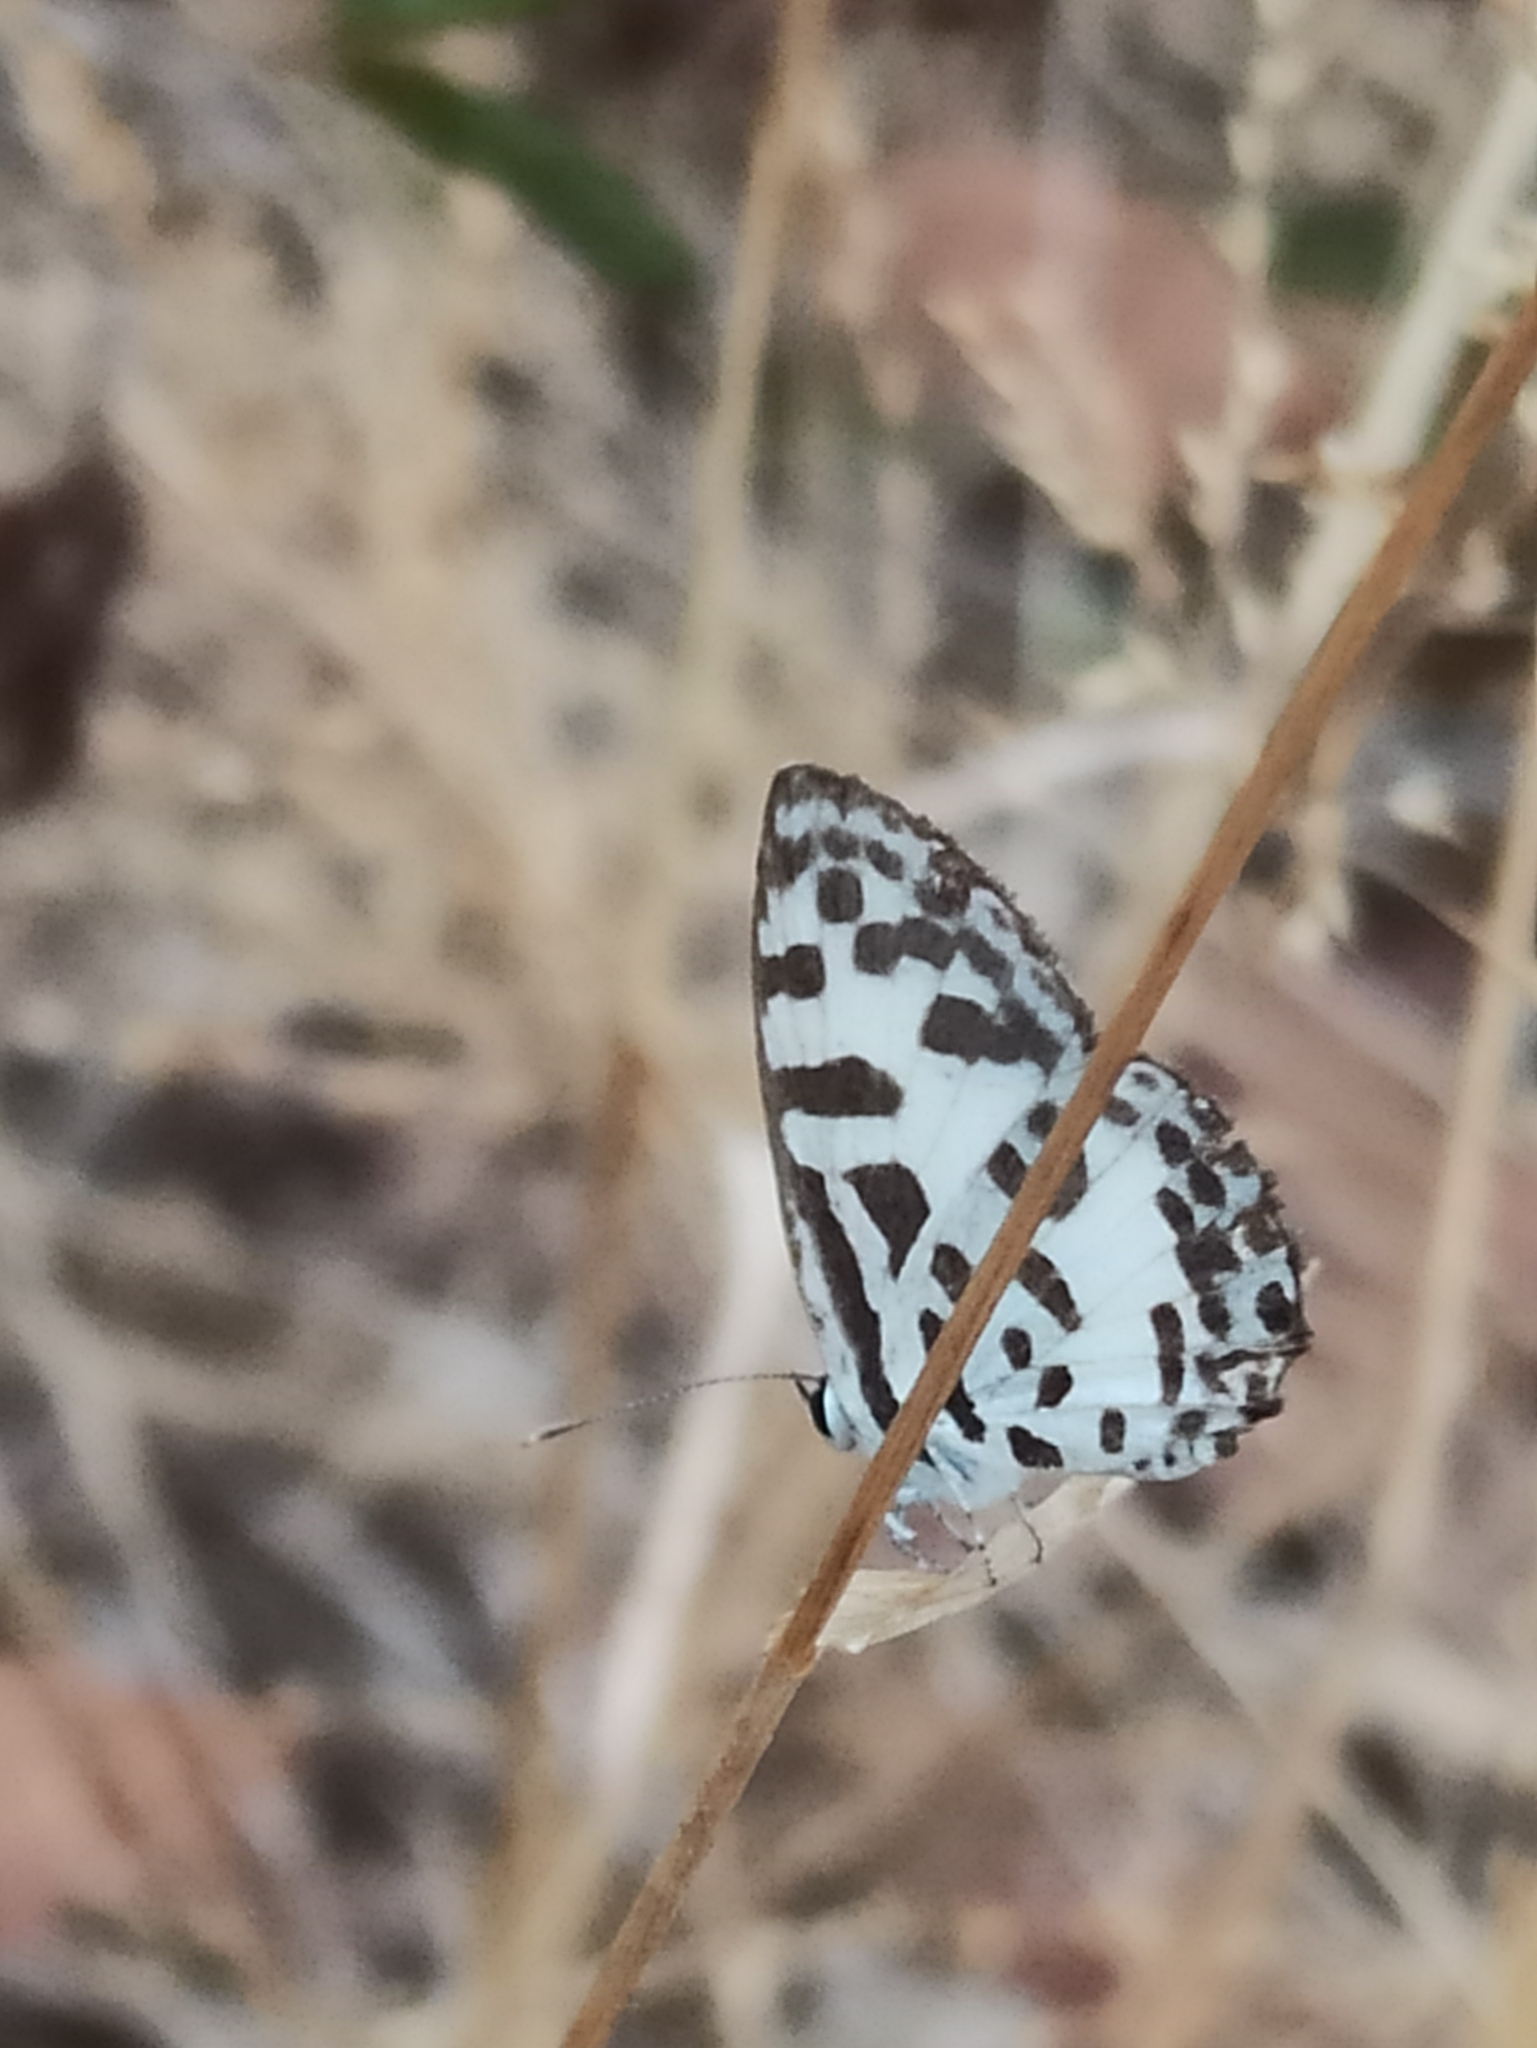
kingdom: Animalia
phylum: Arthropoda
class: Insecta
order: Lepidoptera
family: Lycaenidae
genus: Castalius
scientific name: Castalius rosimon
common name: Common pierrot
